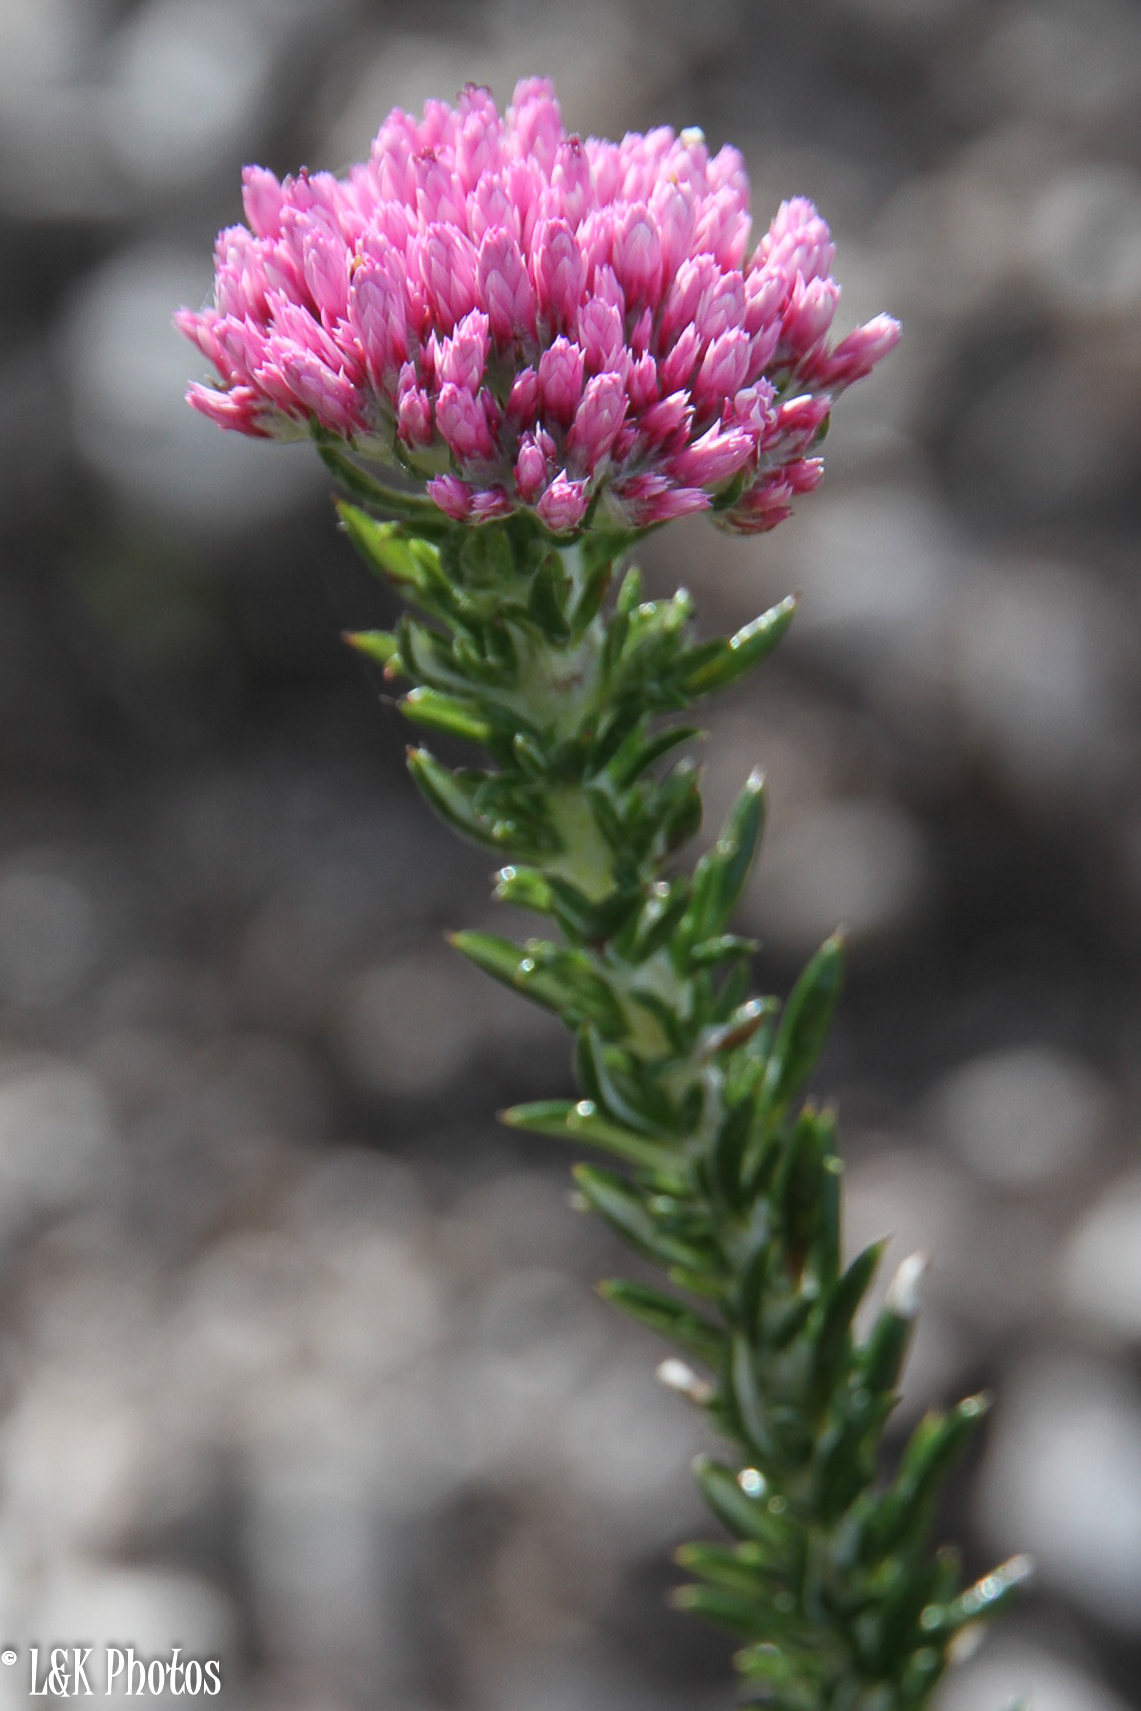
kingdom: Plantae
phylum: Tracheophyta
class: Magnoliopsida
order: Asterales
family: Asteraceae
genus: Metalasia
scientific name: Metalasia erubescens
